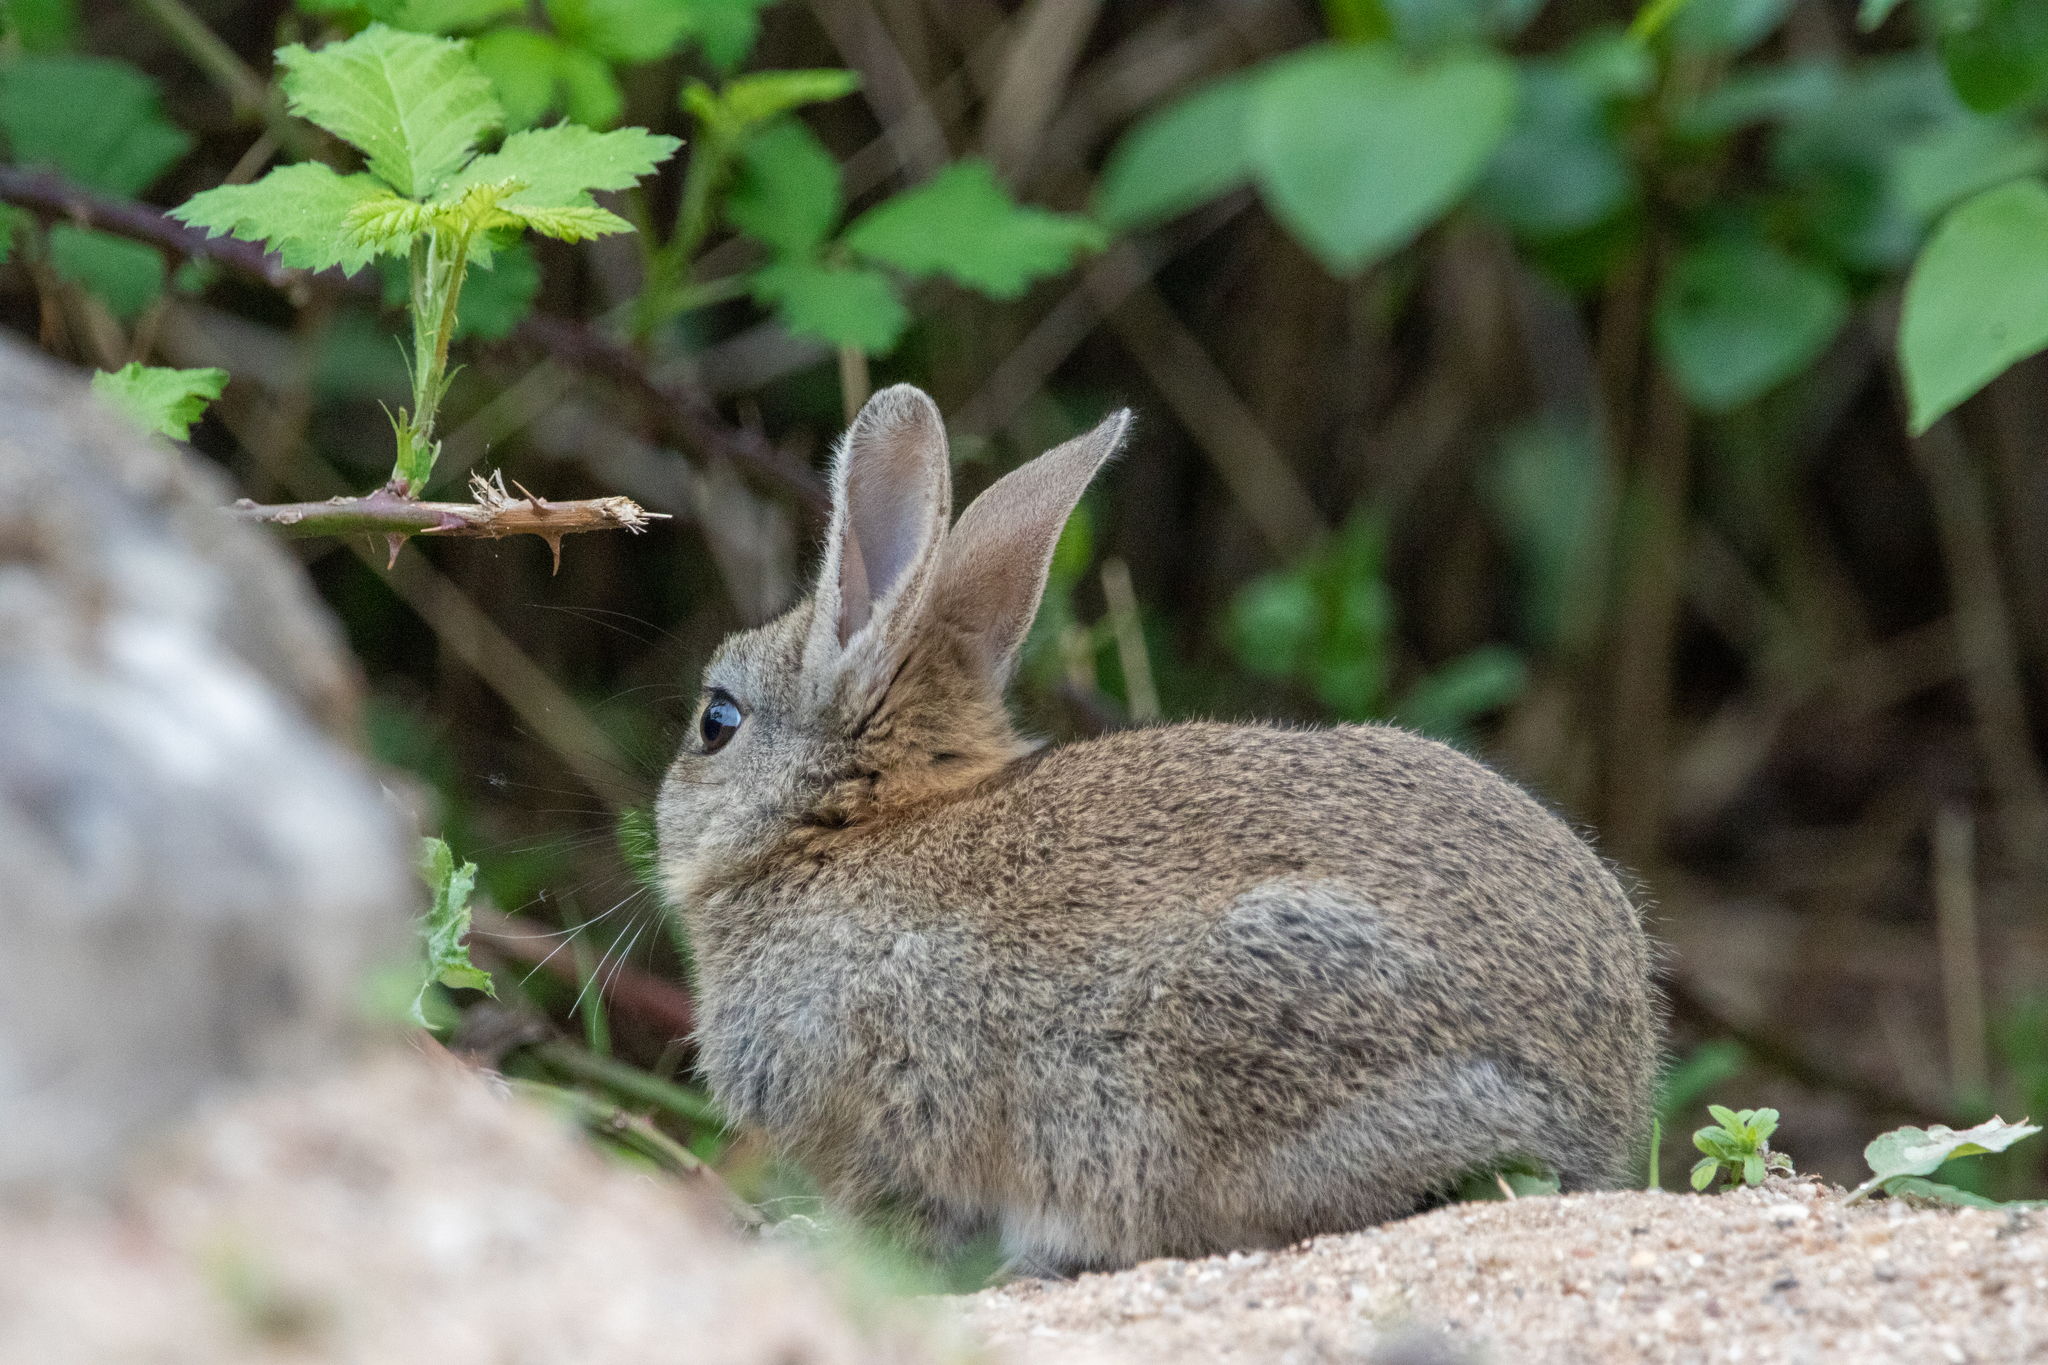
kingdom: Animalia
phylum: Chordata
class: Mammalia
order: Lagomorpha
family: Leporidae
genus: Oryctolagus
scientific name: Oryctolagus cuniculus
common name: European rabbit
